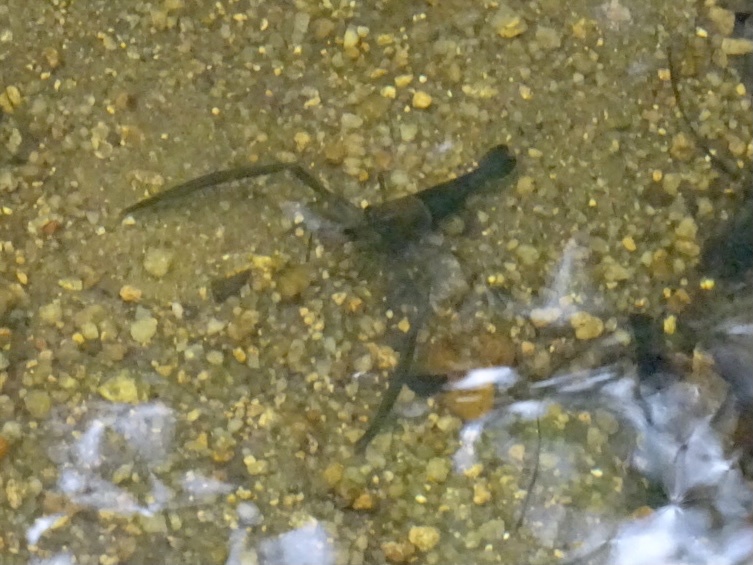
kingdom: Animalia
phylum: Arthropoda
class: Malacostraca
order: Decapoda
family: Palaemonidae
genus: Macrobrachium
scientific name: Macrobrachium laevis
